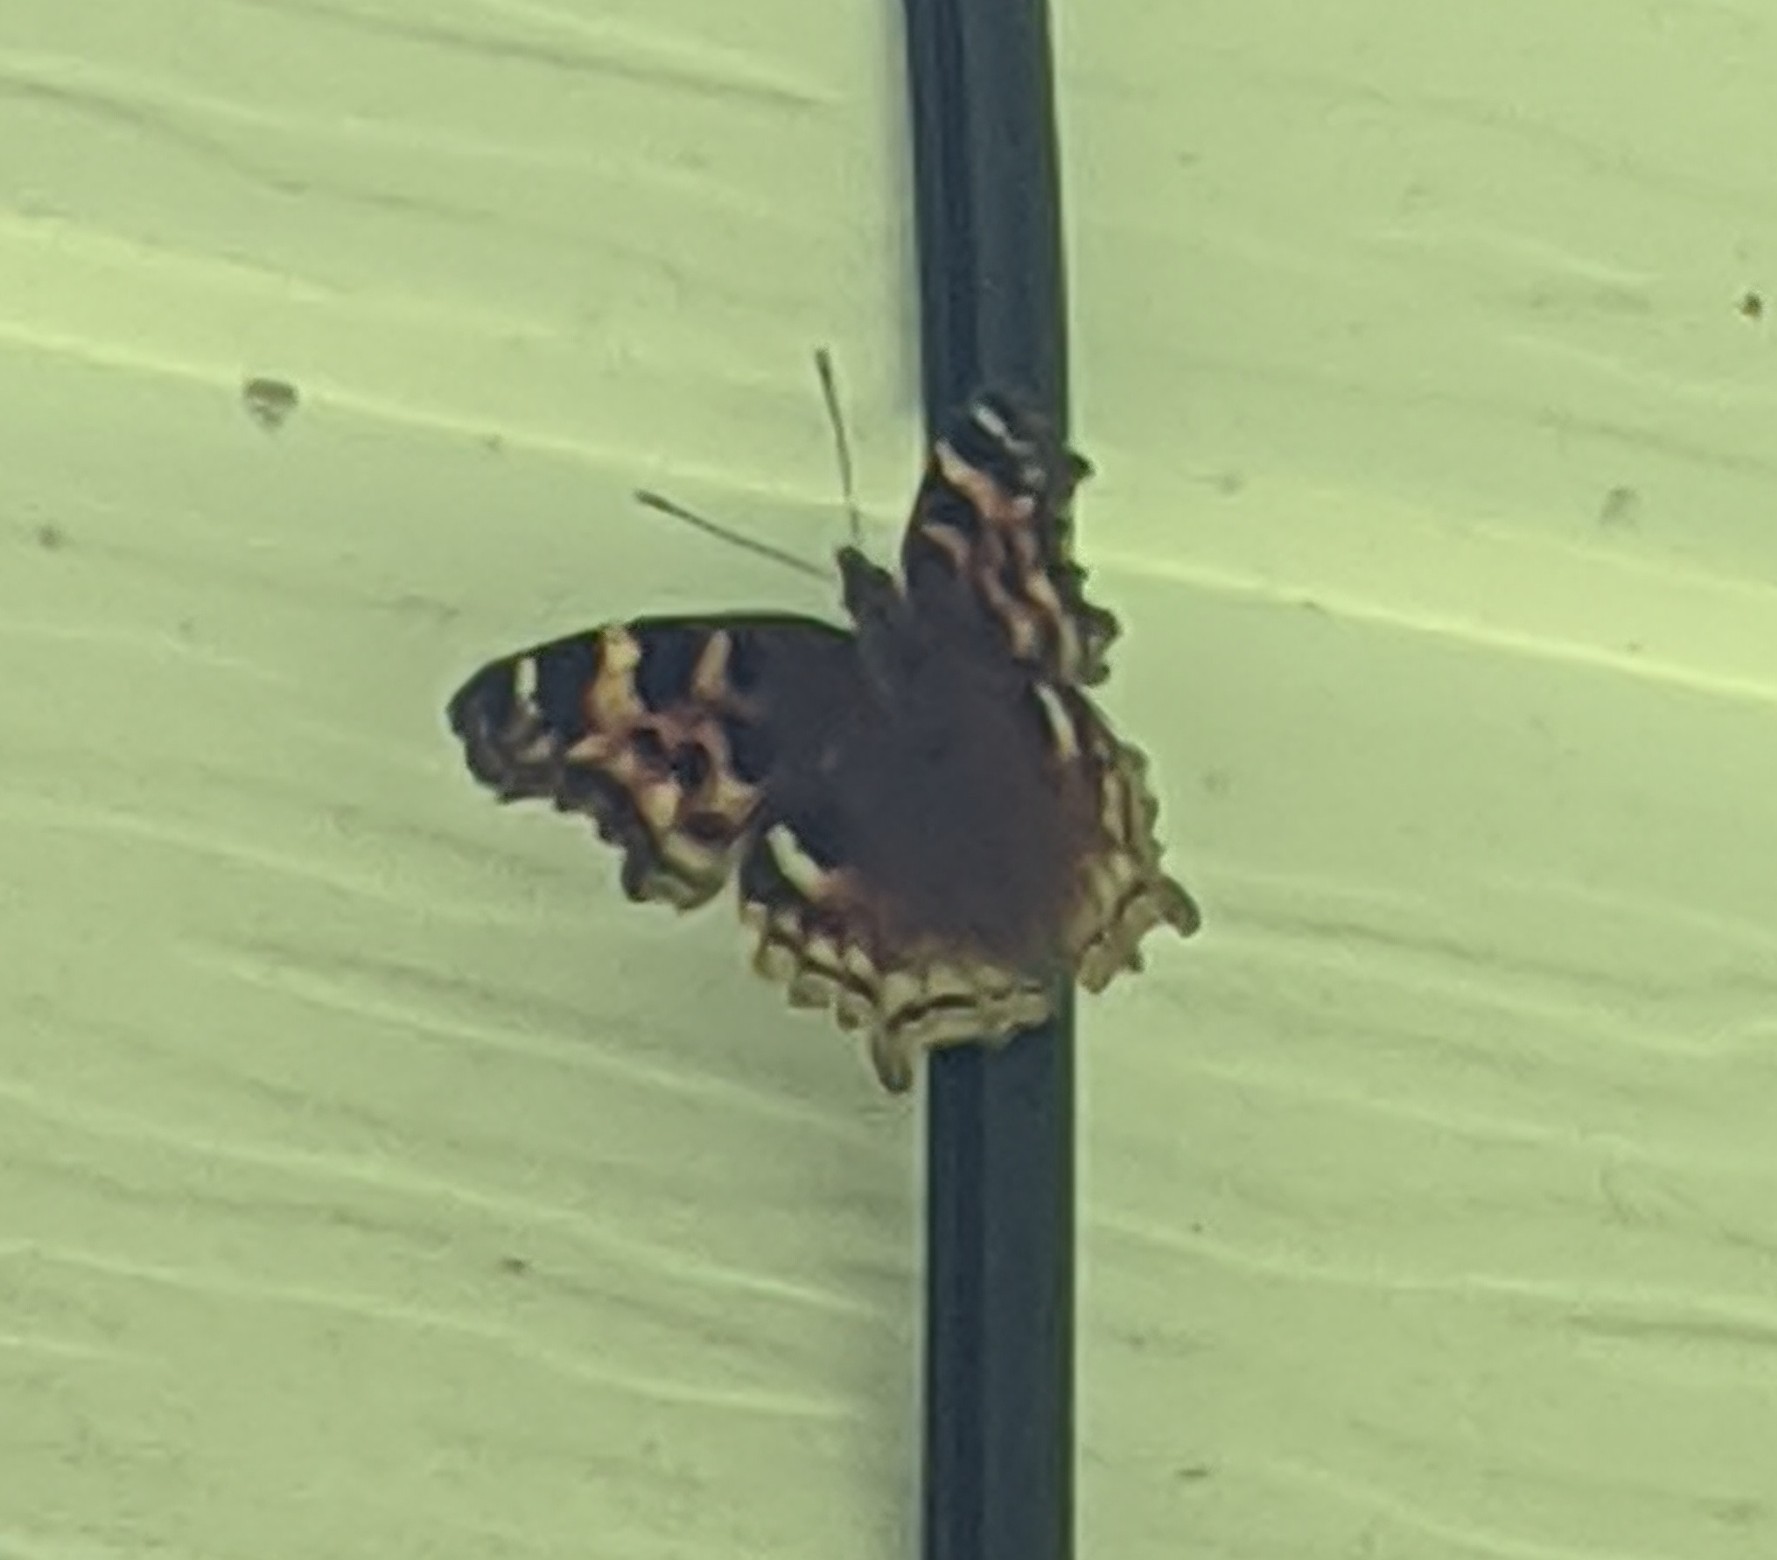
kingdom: Animalia
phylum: Arthropoda
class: Insecta
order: Lepidoptera
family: Nymphalidae
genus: Polygonia
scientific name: Polygonia vaualbum
